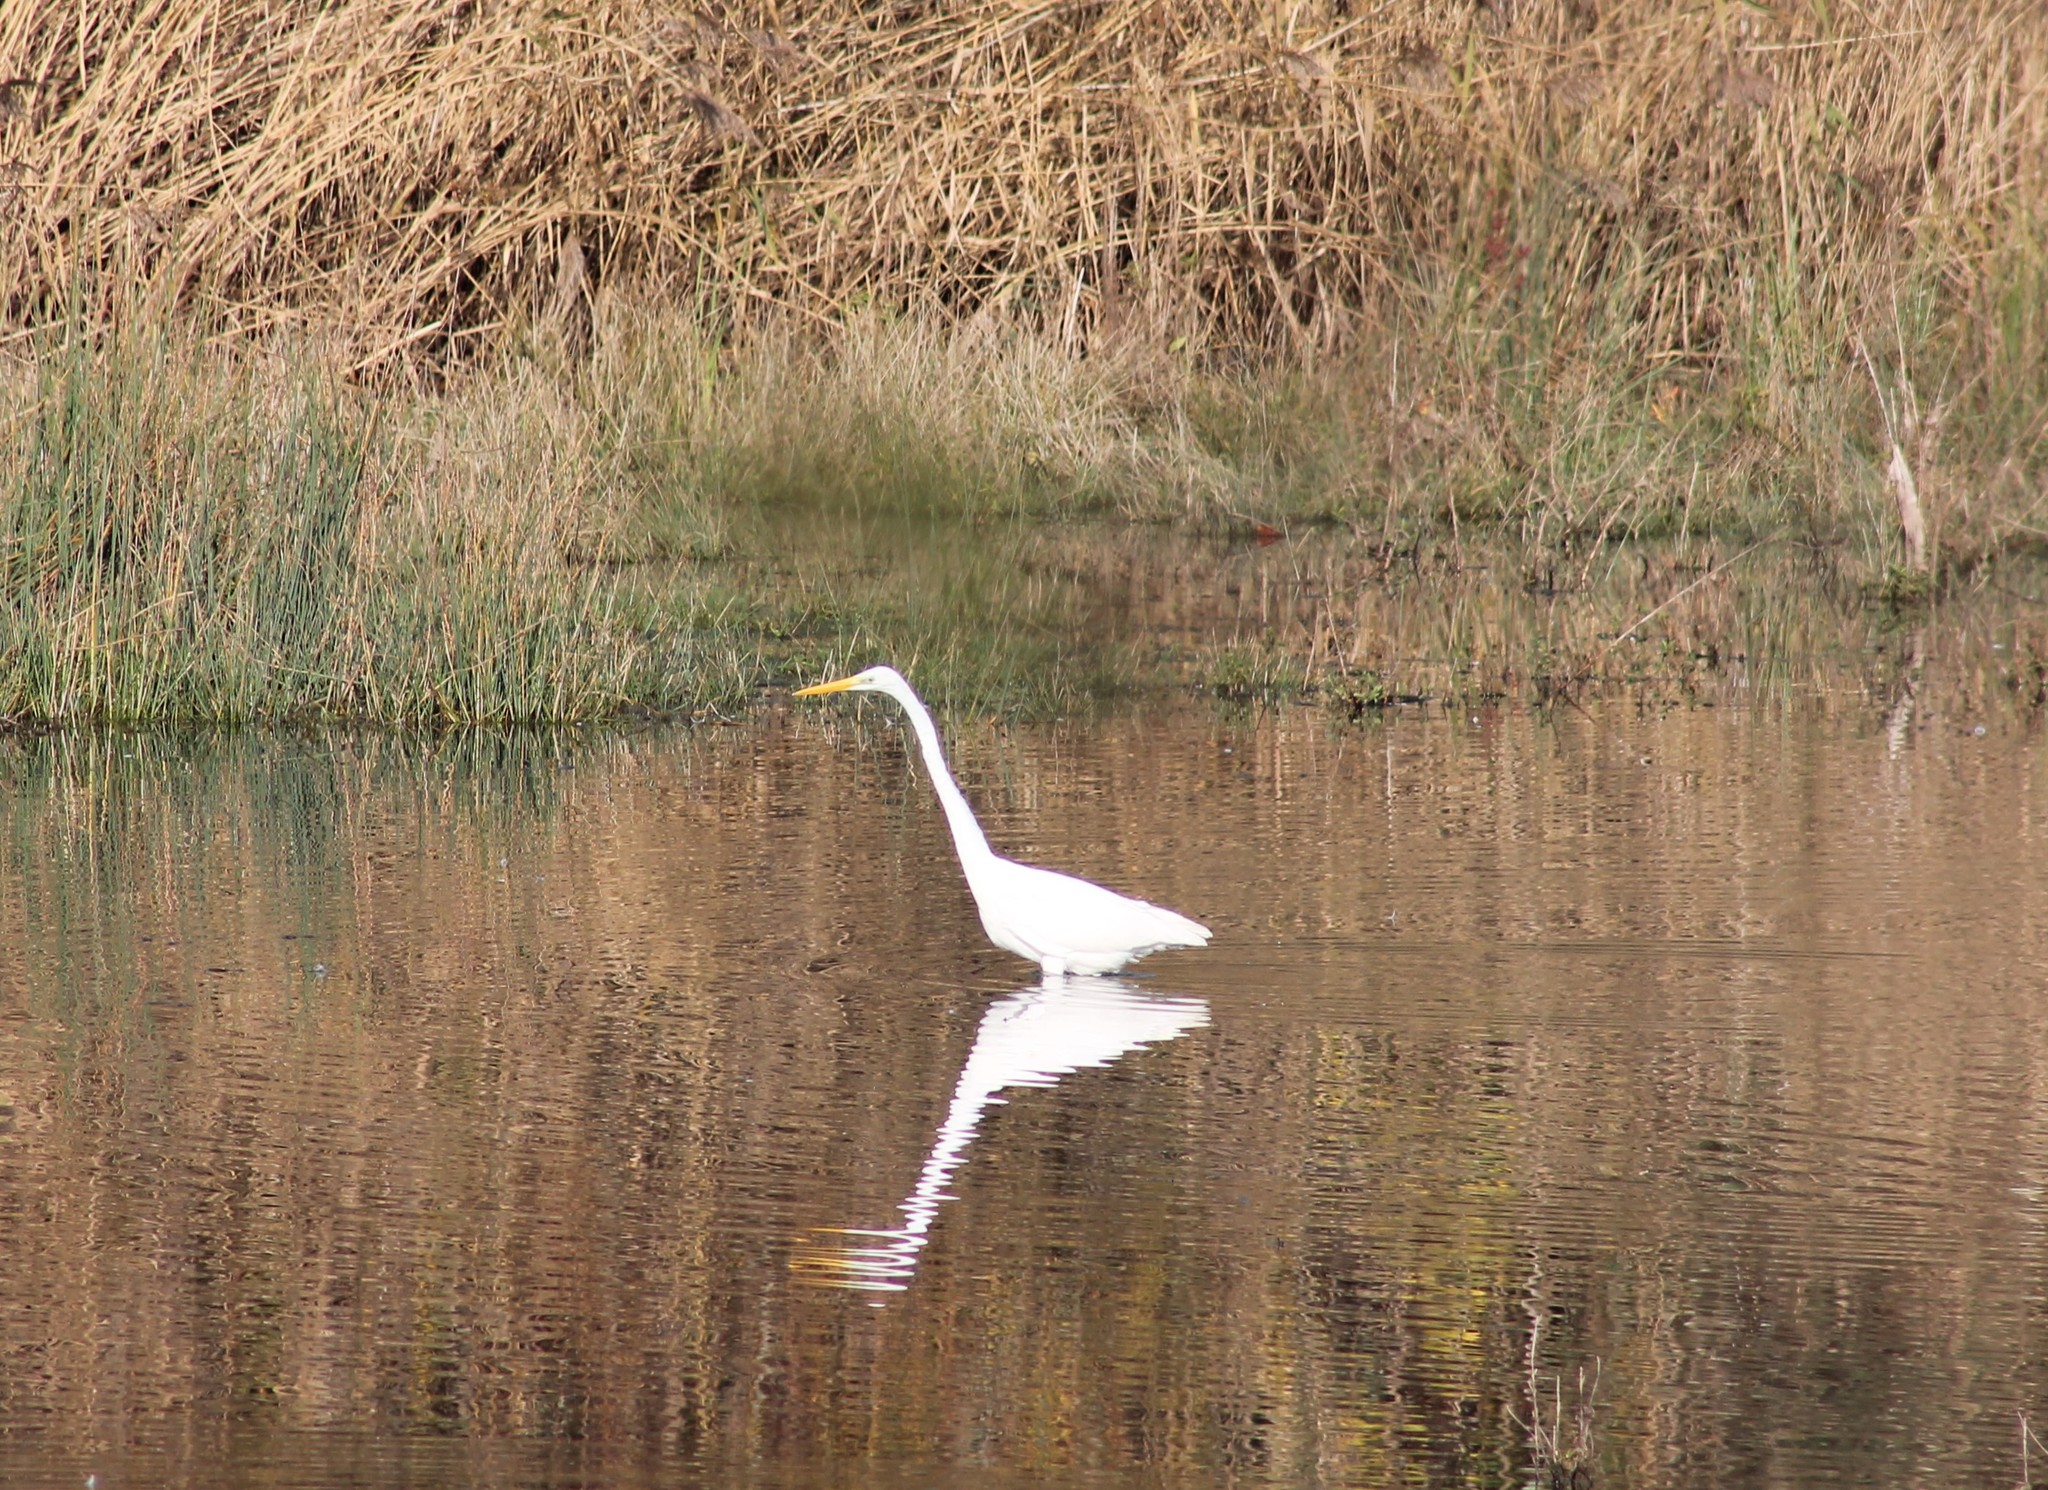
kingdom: Animalia
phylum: Chordata
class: Aves
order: Pelecaniformes
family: Ardeidae
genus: Ardea
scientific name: Ardea alba
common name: Great egret
